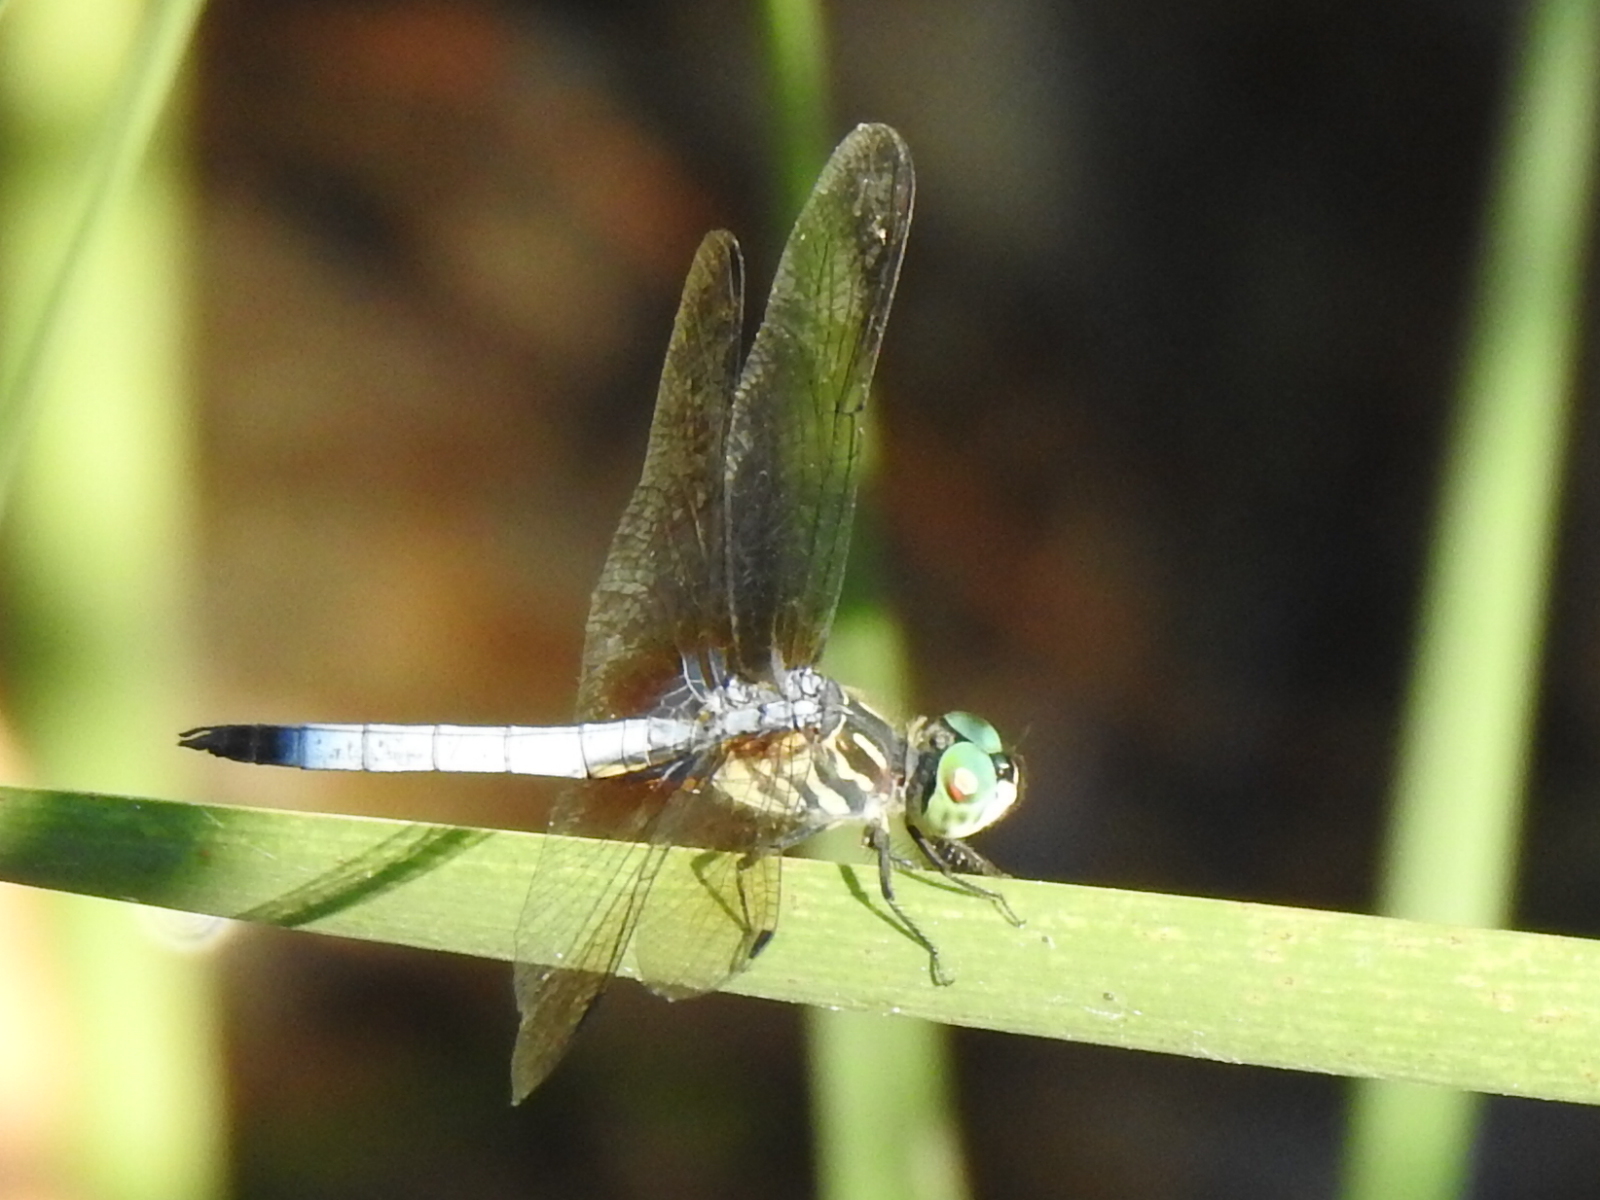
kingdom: Animalia
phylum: Arthropoda
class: Insecta
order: Odonata
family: Libellulidae
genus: Pachydiplax
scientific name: Pachydiplax longipennis
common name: Blue dasher
